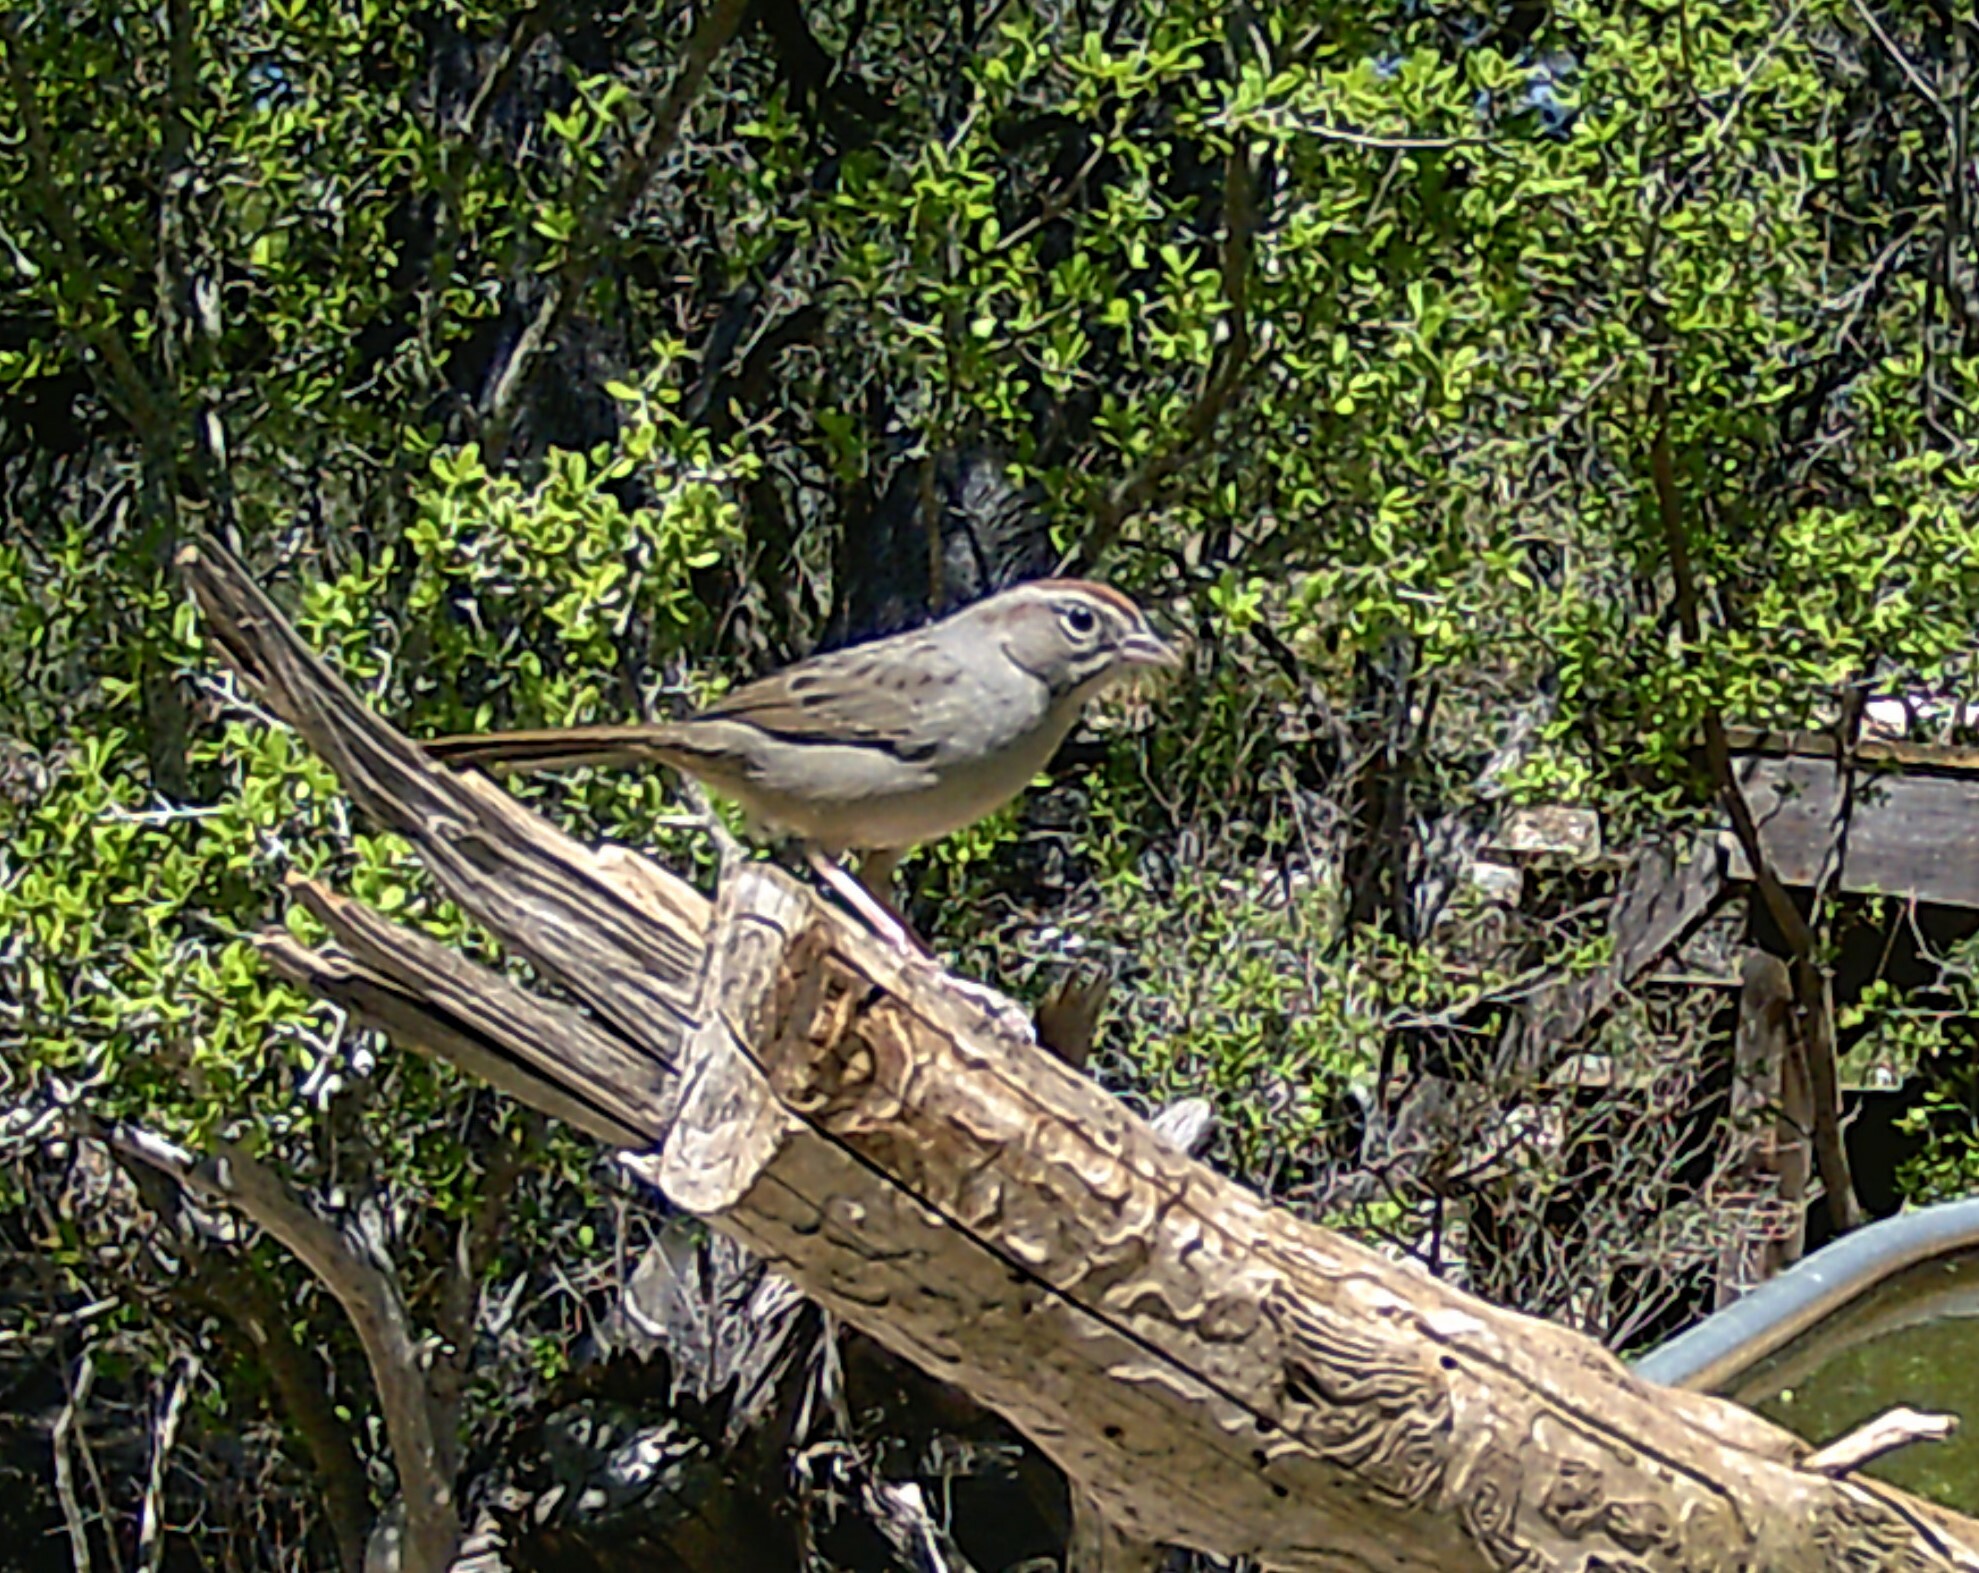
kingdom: Animalia
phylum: Chordata
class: Aves
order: Passeriformes
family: Passerellidae
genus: Aimophila
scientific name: Aimophila ruficeps
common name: Rufous-crowned sparrow
